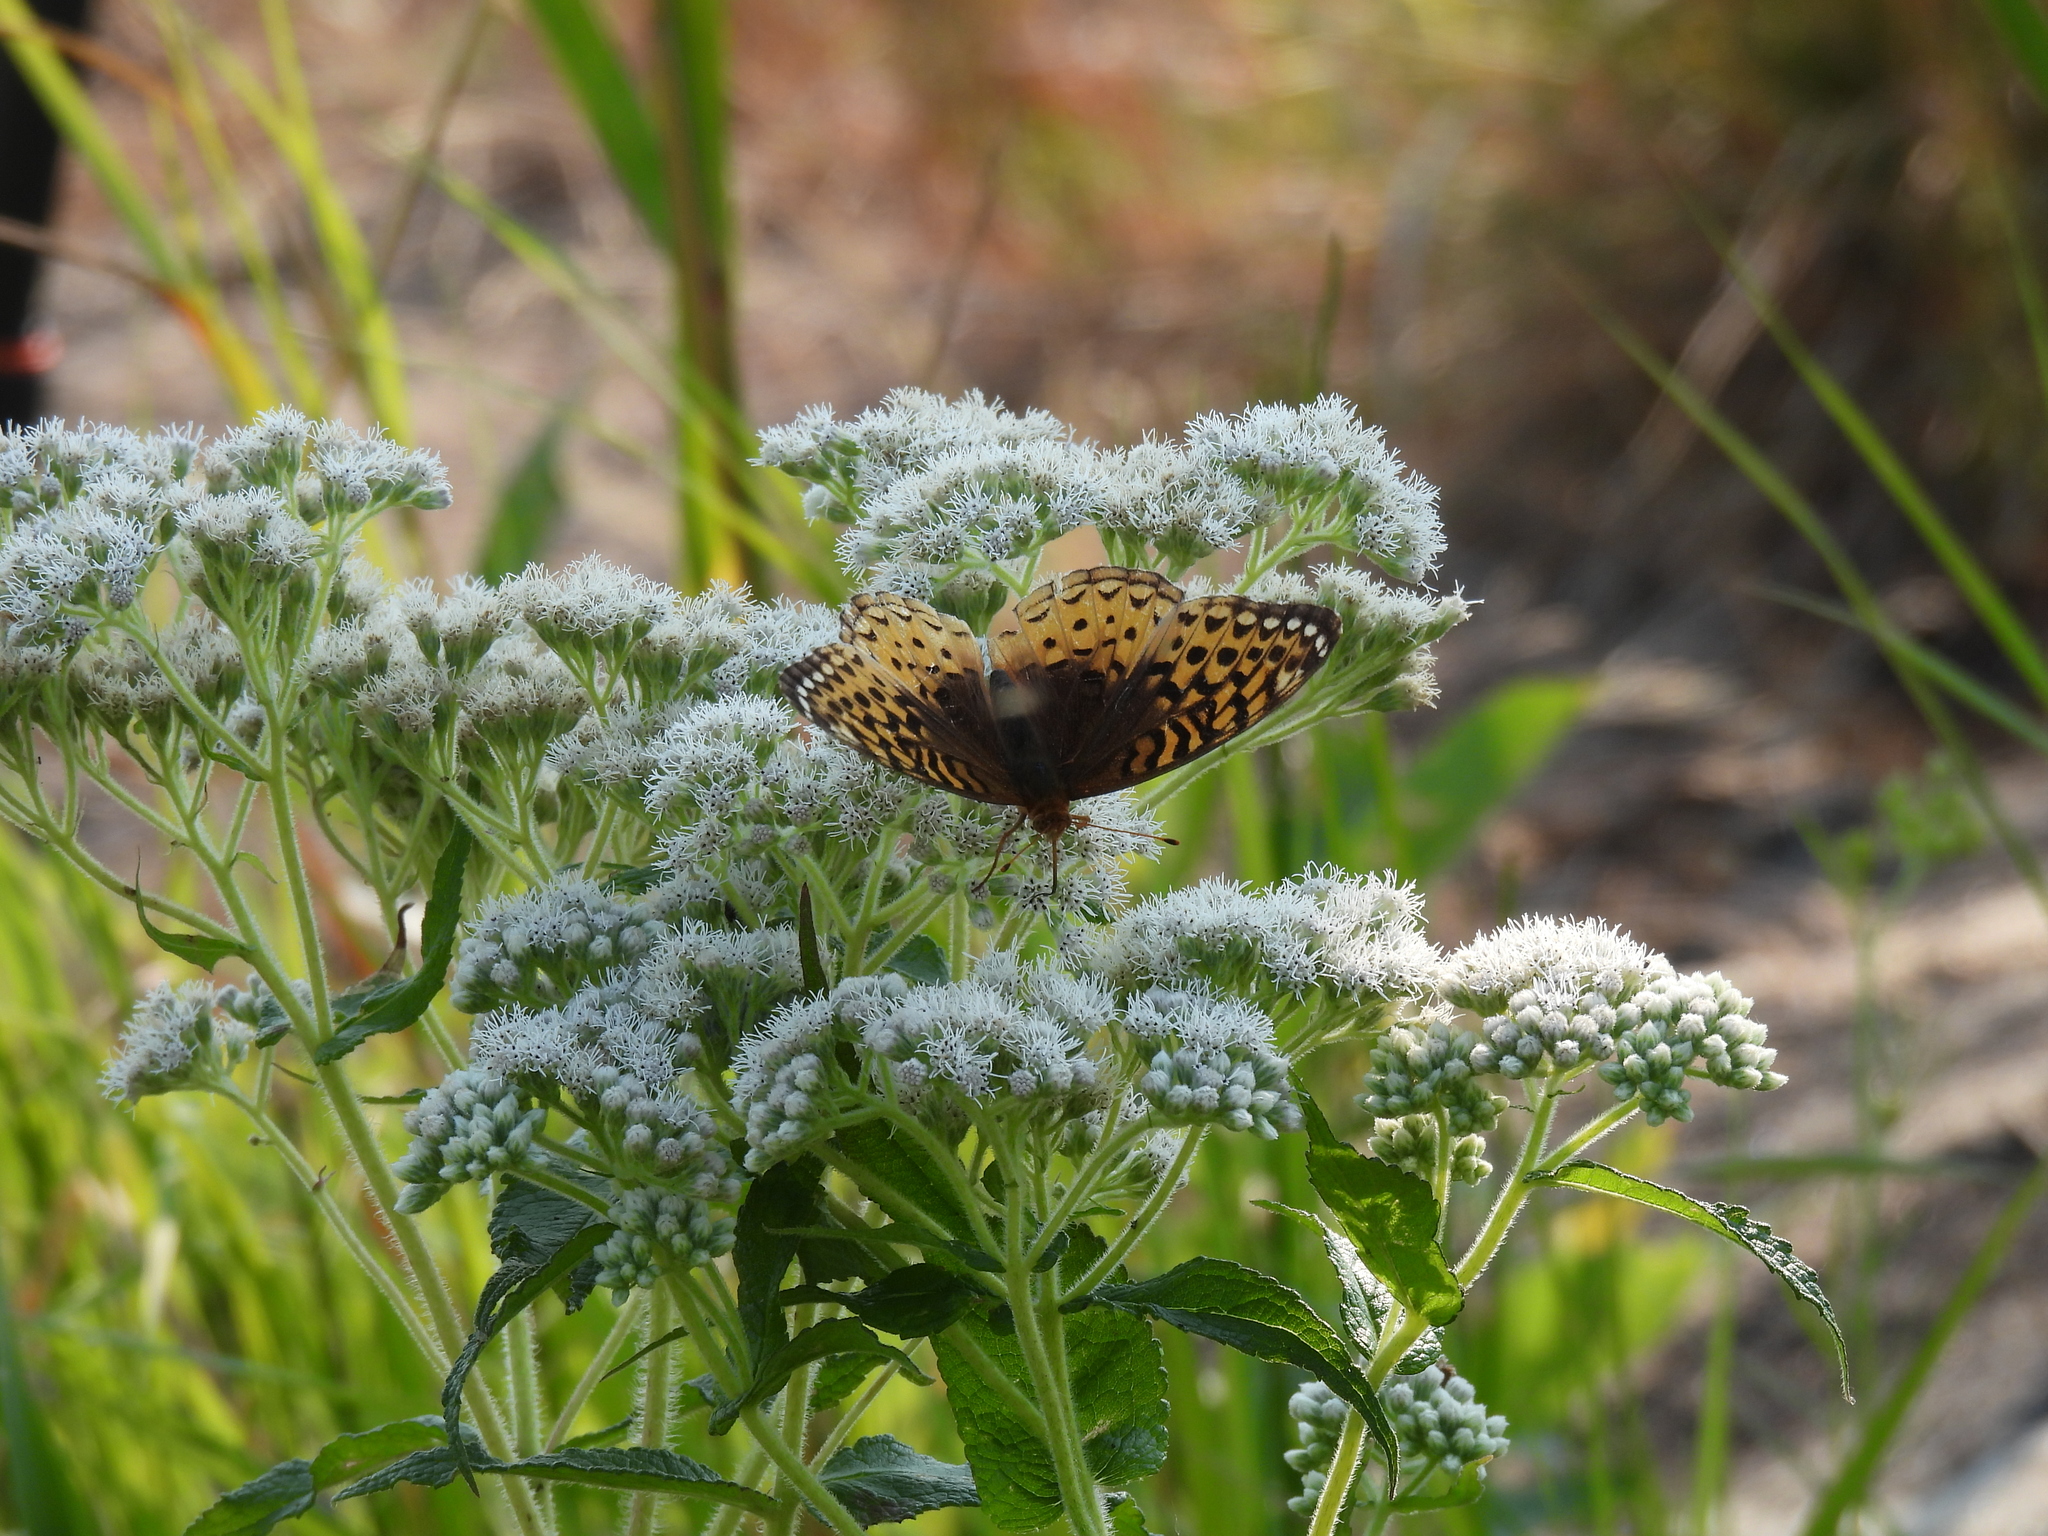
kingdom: Animalia
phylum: Arthropoda
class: Insecta
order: Lepidoptera
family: Nymphalidae
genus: Speyeria
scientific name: Speyeria cybele
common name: Great spangled fritillary
